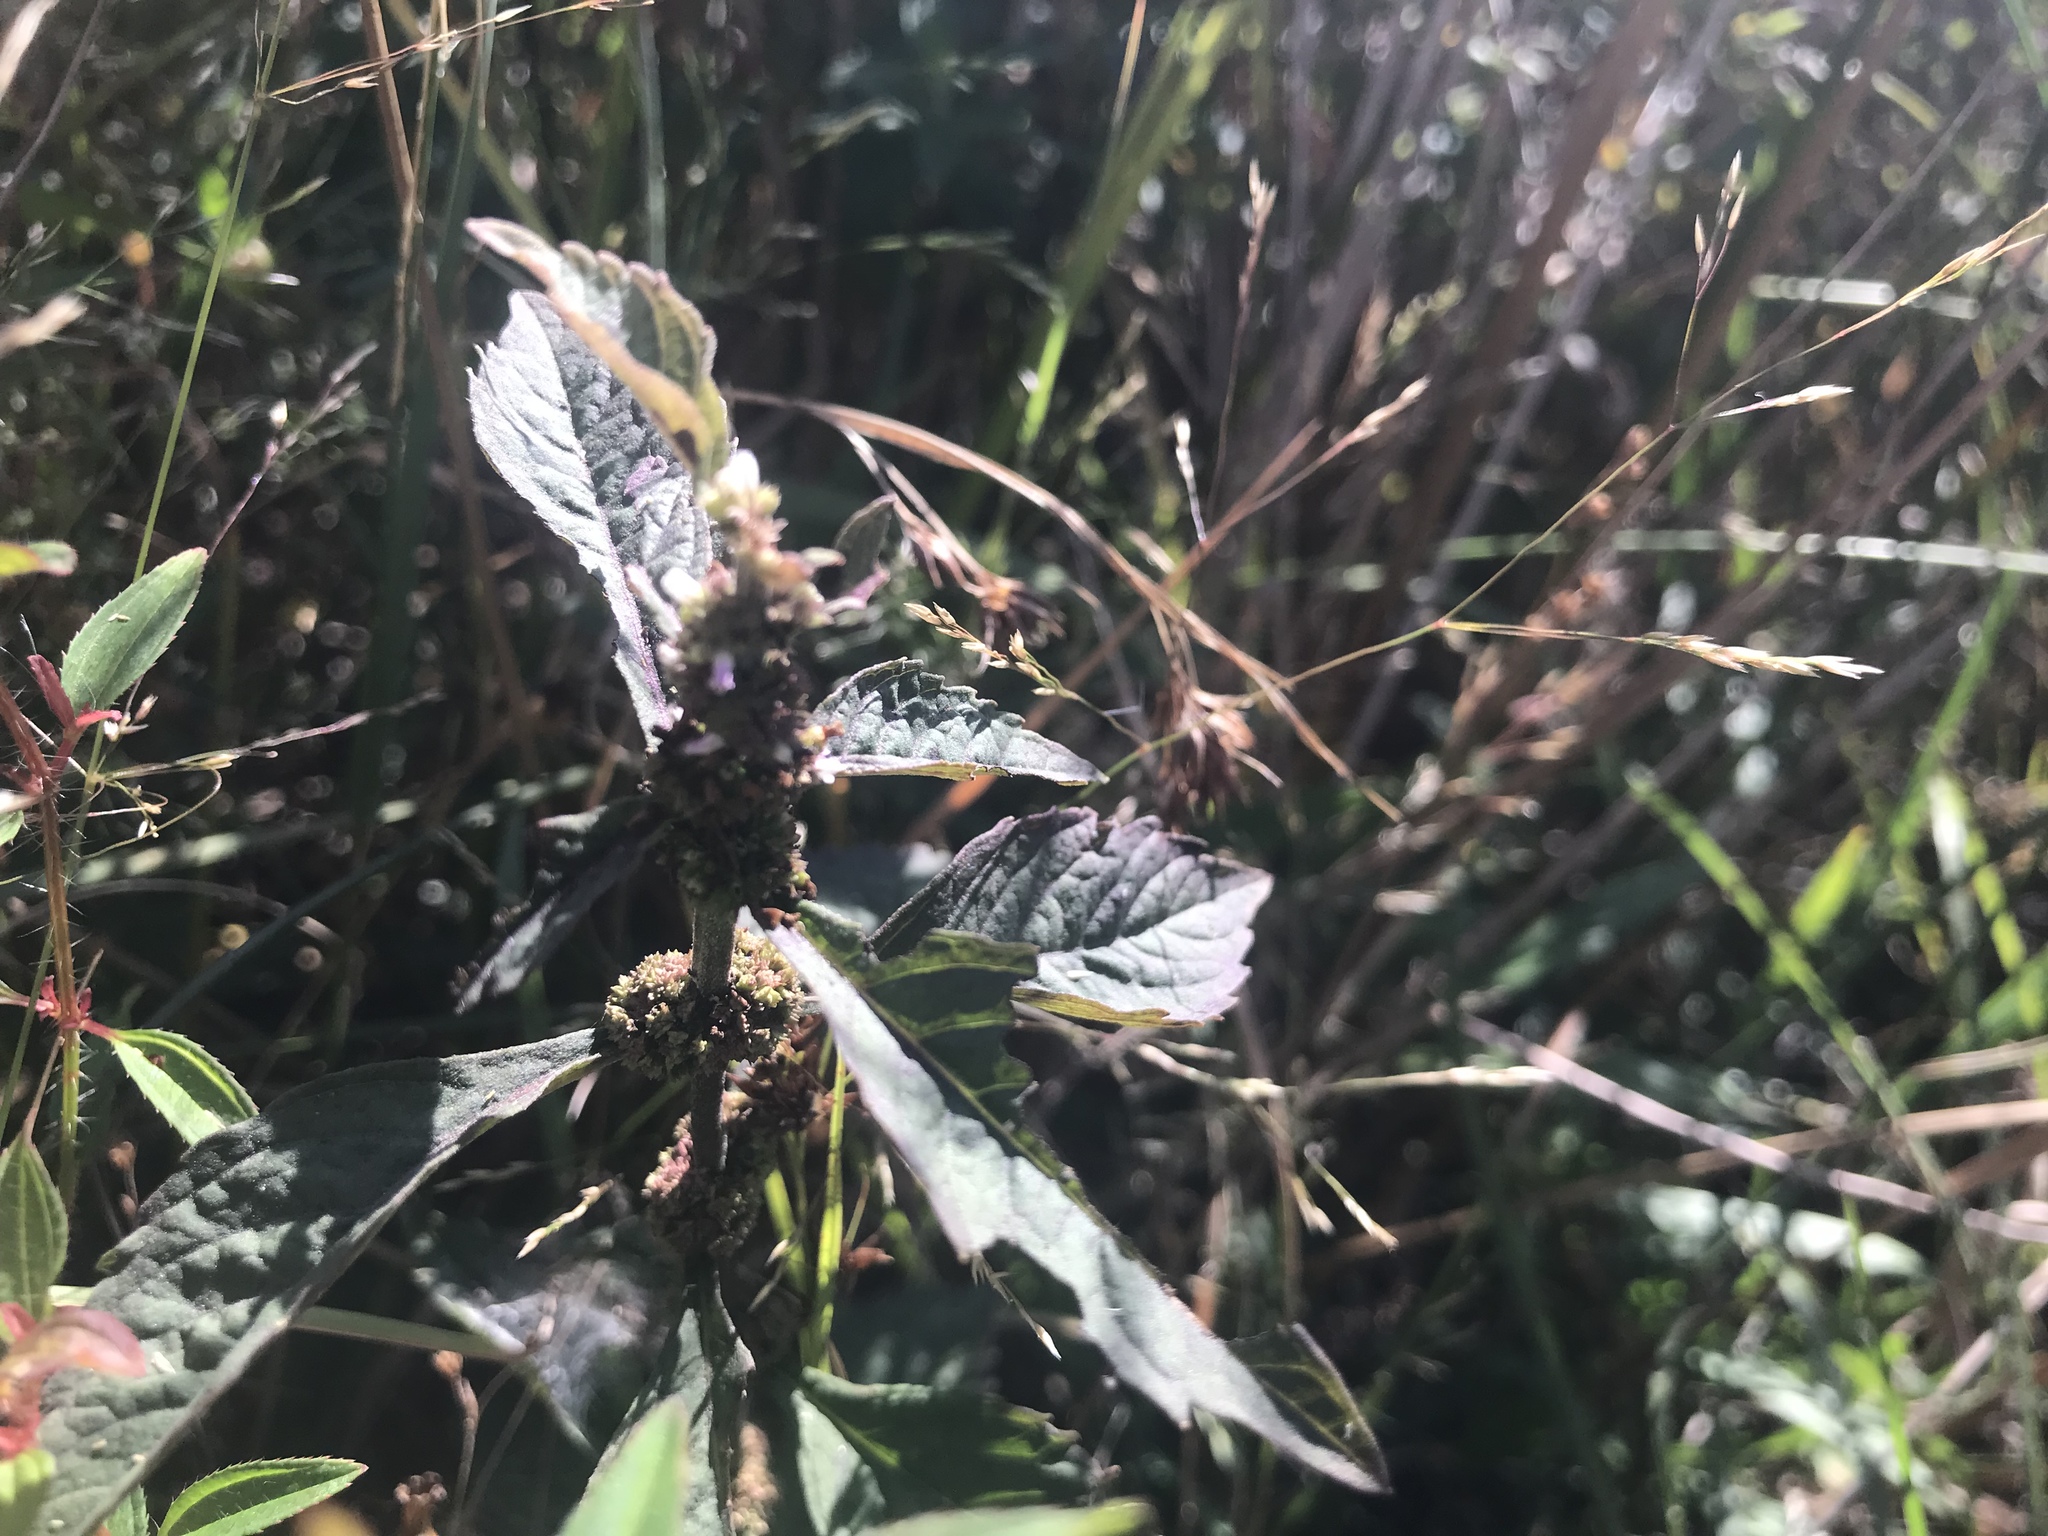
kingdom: Plantae
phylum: Tracheophyta
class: Magnoliopsida
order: Lamiales
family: Lamiaceae
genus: Perilla
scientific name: Perilla frutescens
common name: Perilla
